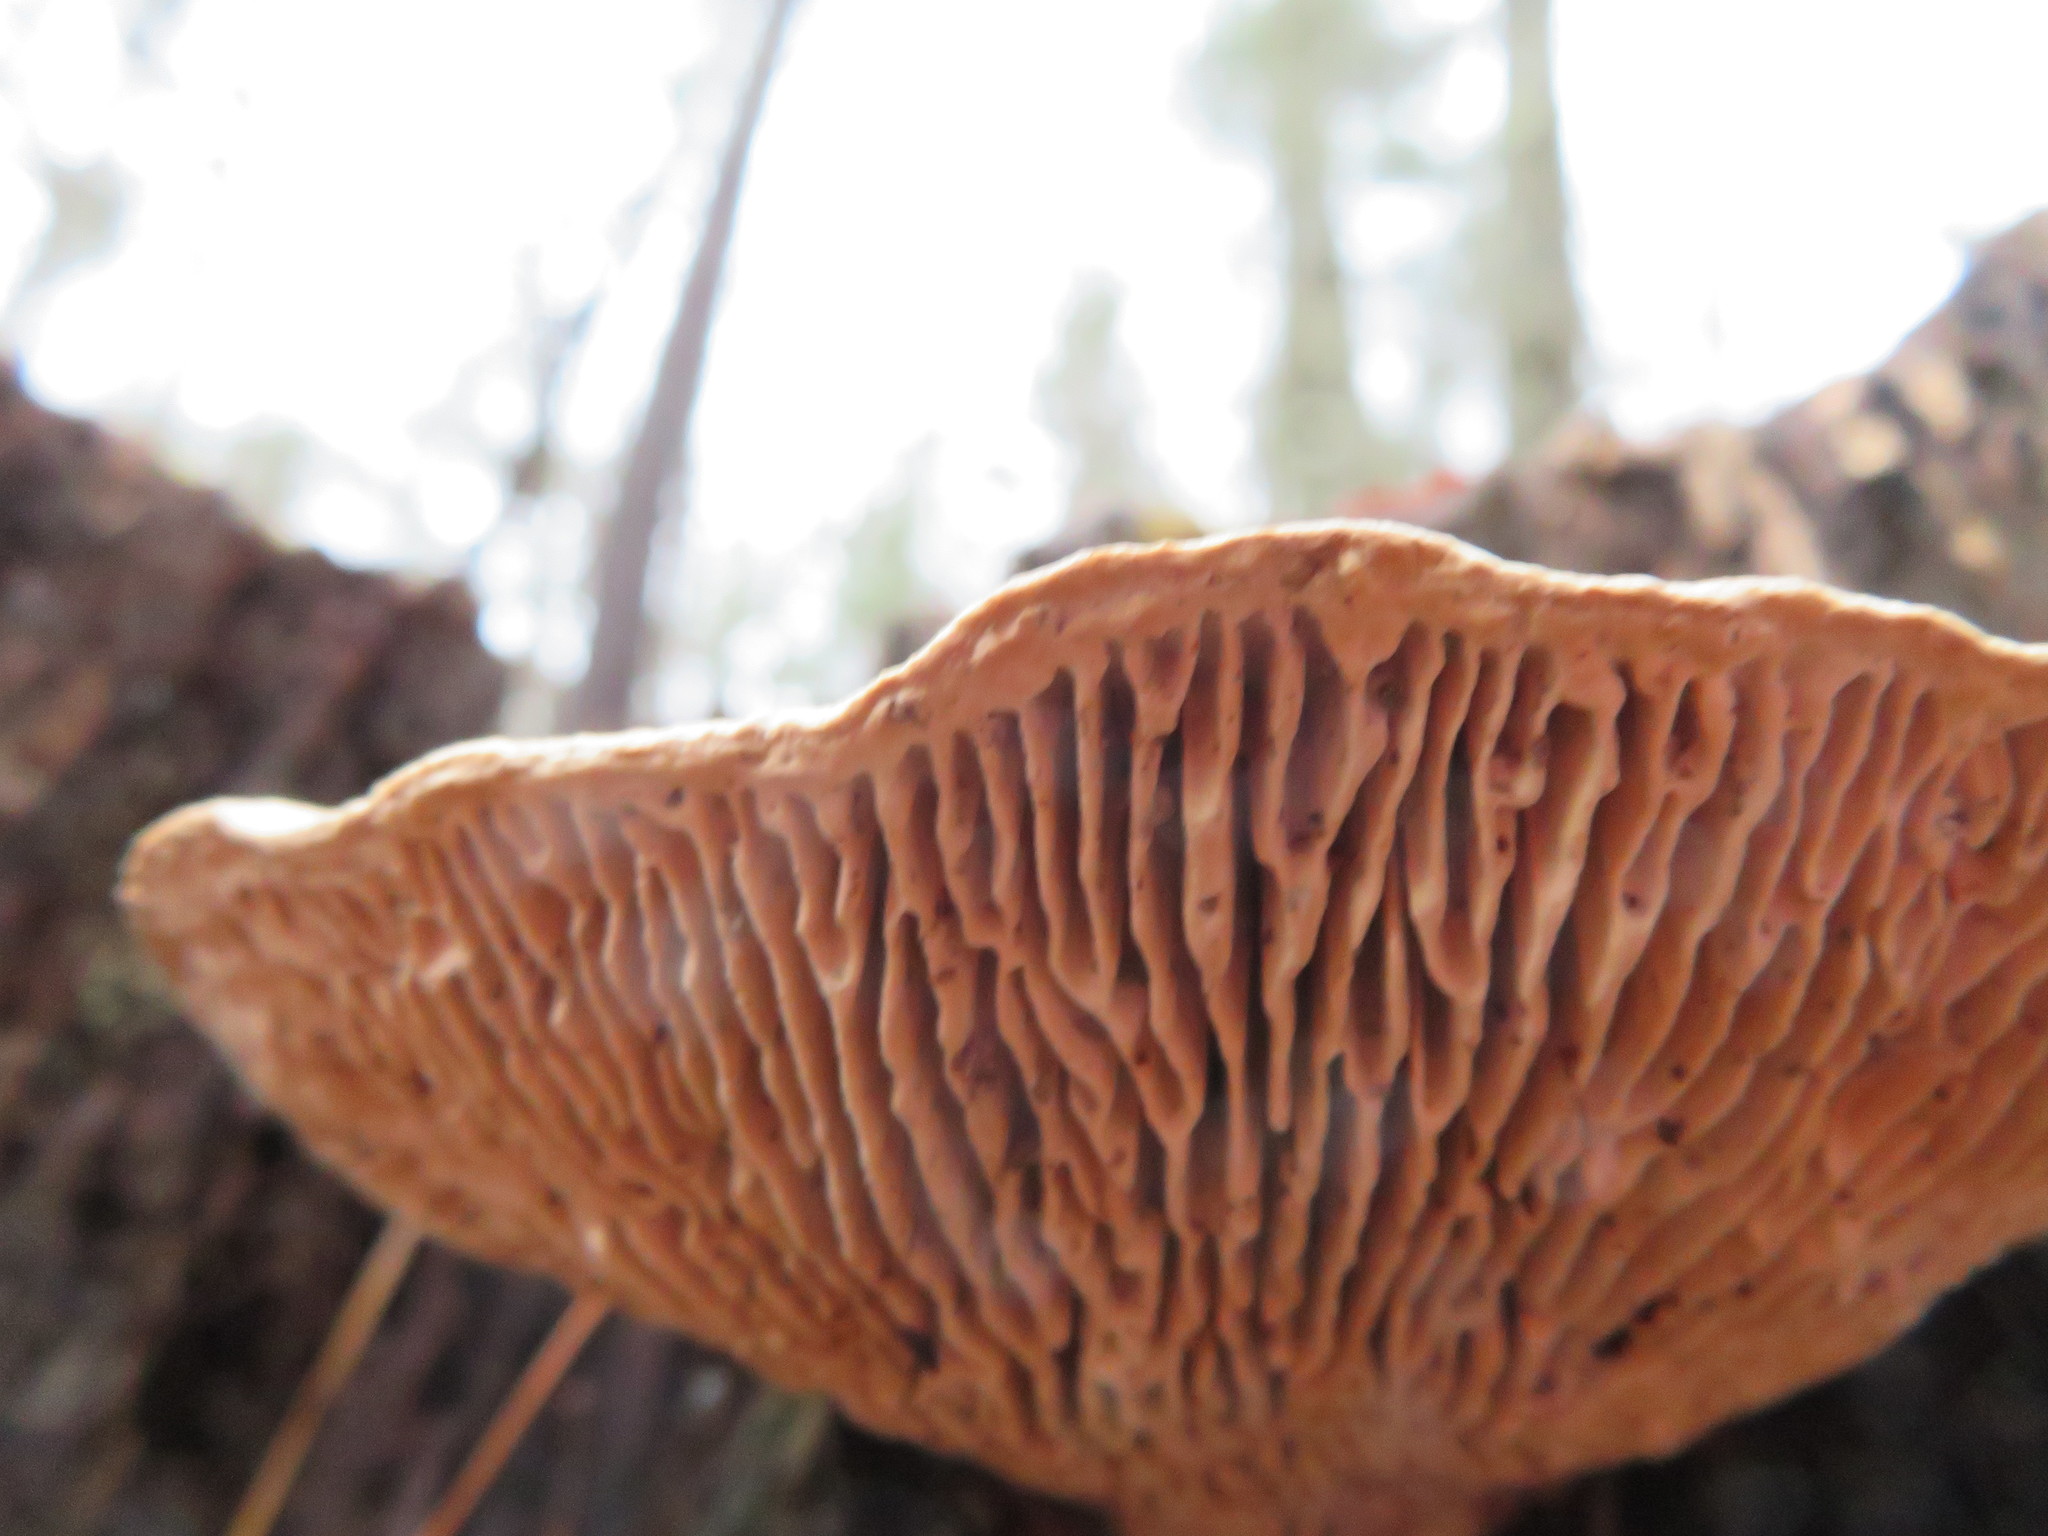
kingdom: Fungi
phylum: Basidiomycota
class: Agaricomycetes
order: Polyporales
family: Fomitopsidaceae
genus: Fomitopsis
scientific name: Fomitopsis
